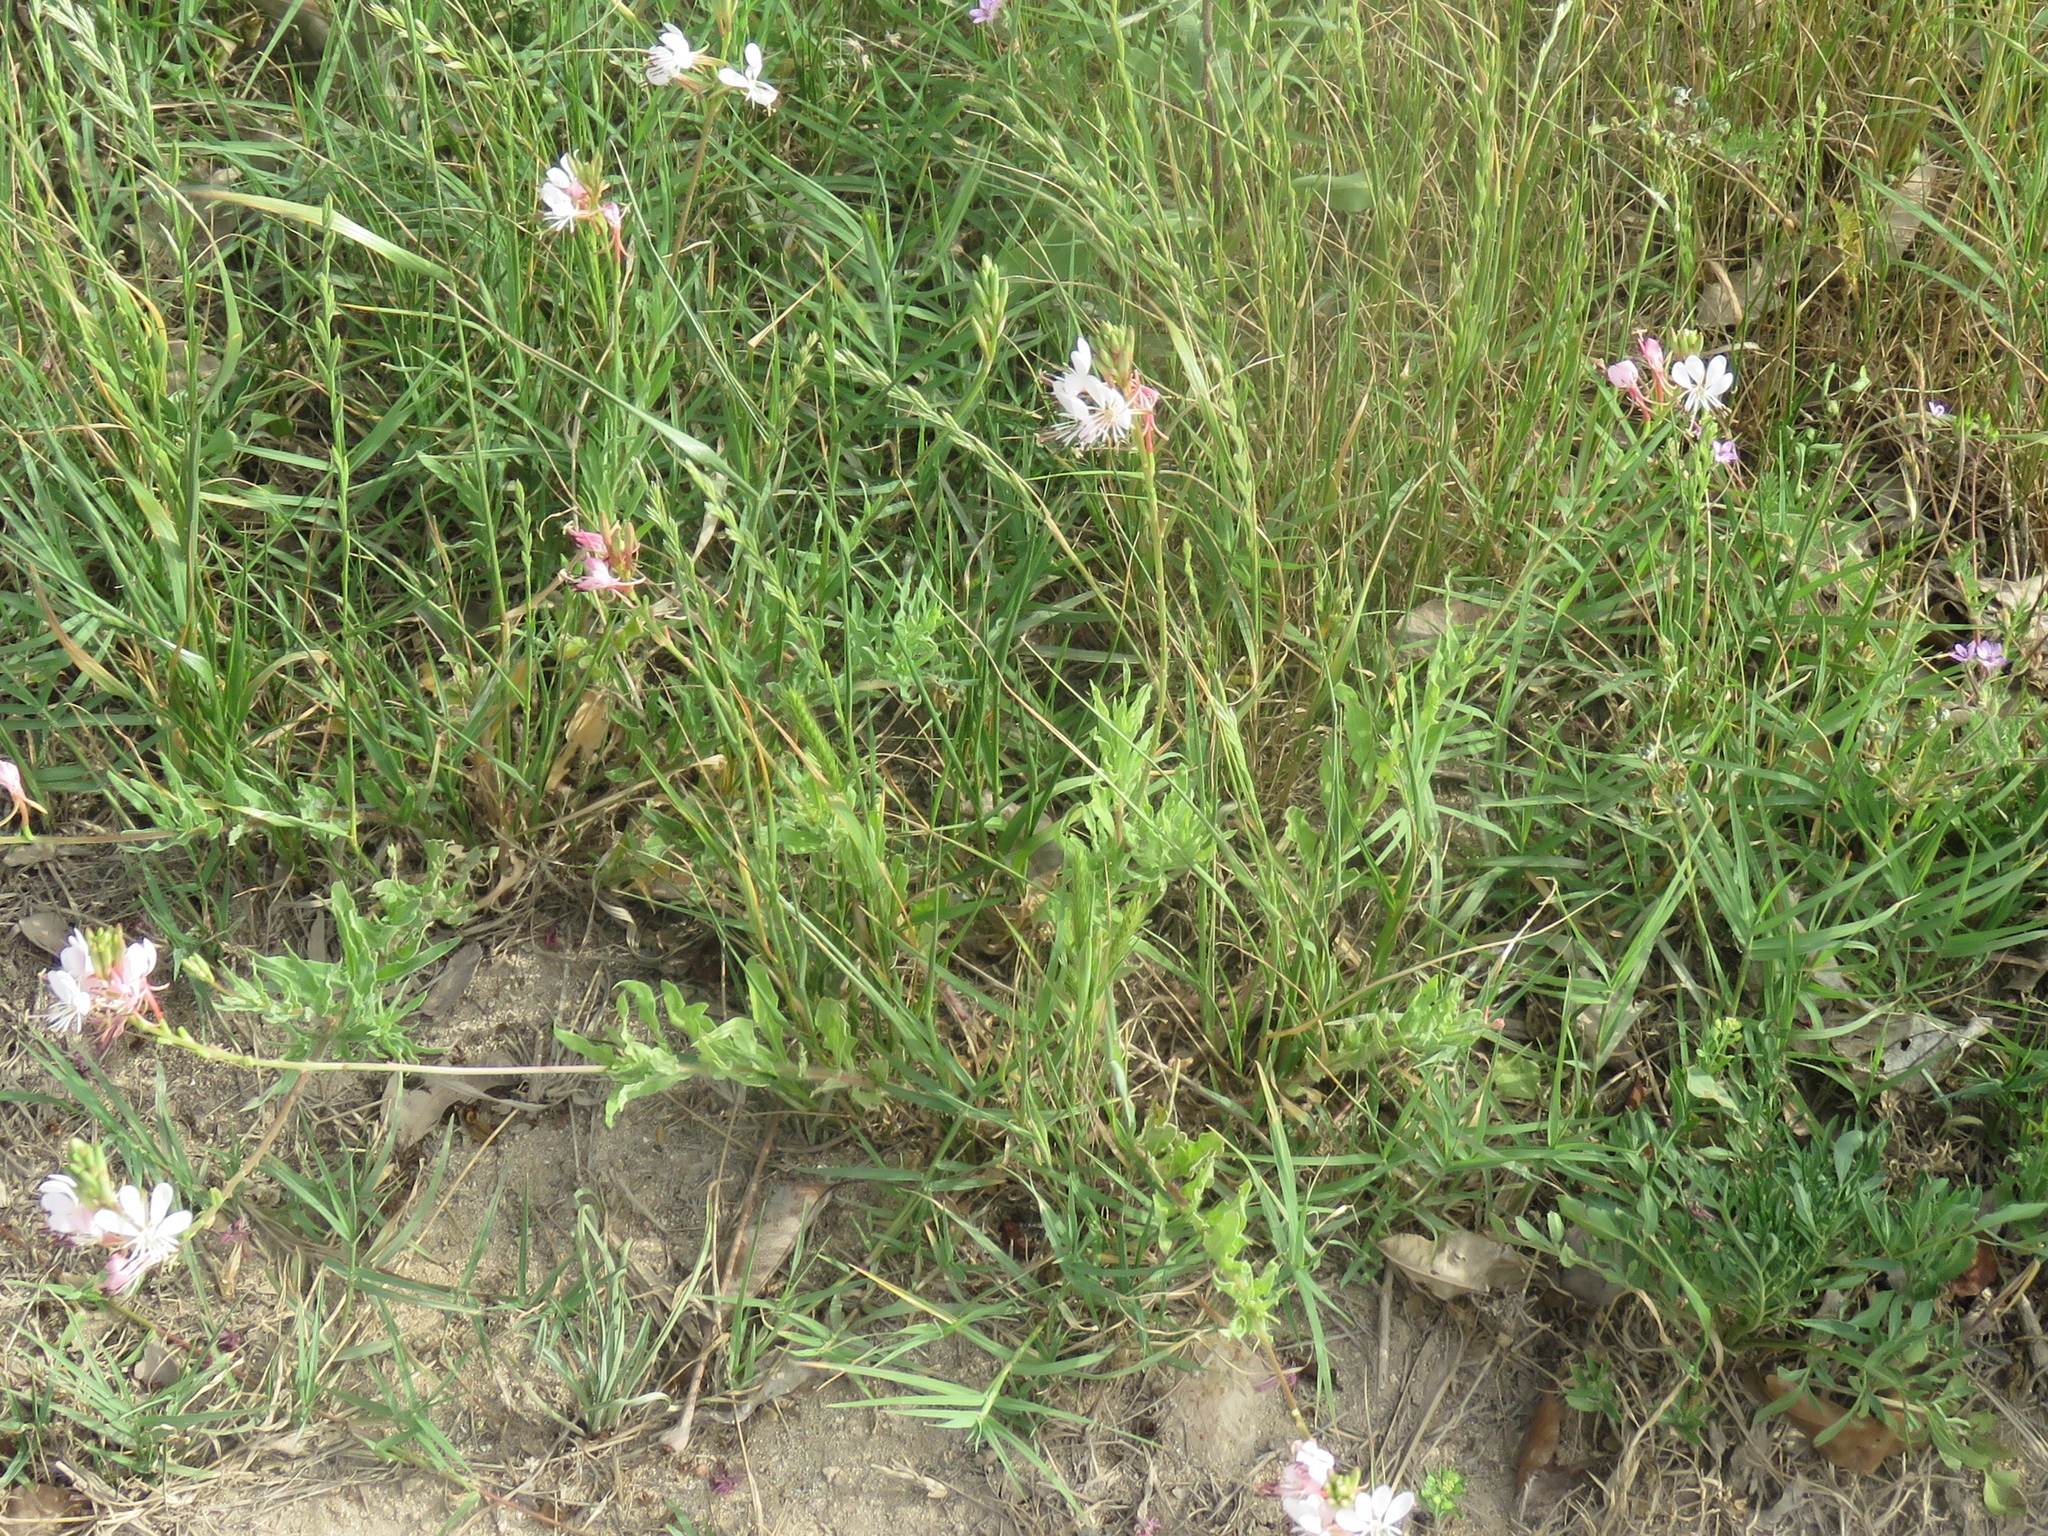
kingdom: Plantae
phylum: Tracheophyta
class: Magnoliopsida
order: Myrtales
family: Onagraceae
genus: Oenothera
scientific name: Oenothera suffulta
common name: Kisses
